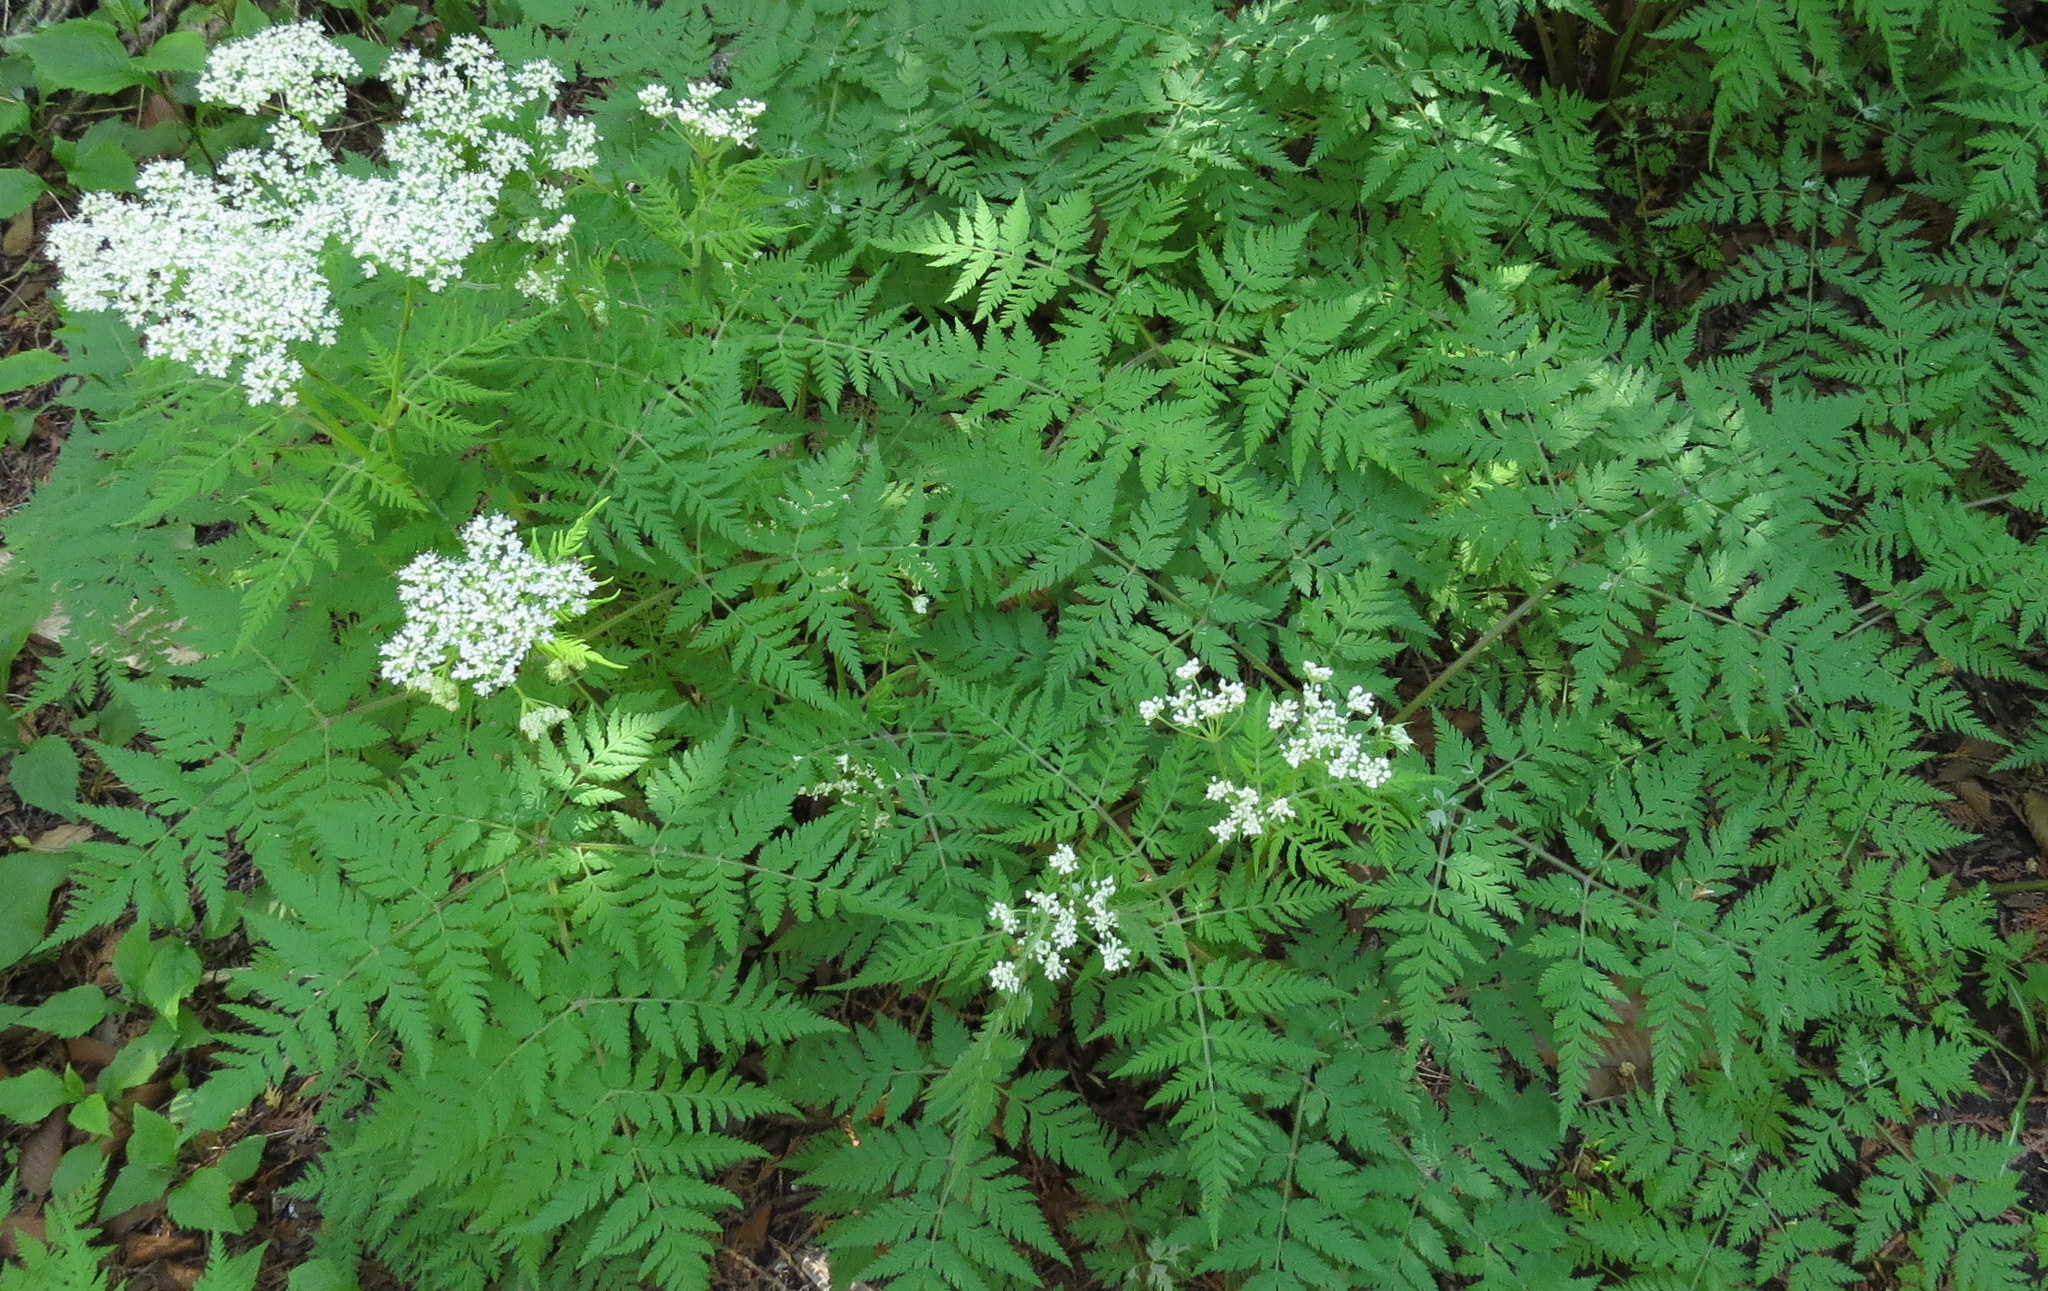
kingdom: Plantae
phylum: Tracheophyta
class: Magnoliopsida
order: Apiales
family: Apiaceae
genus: Myrrhis
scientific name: Myrrhis odorata
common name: Sweet cicely
